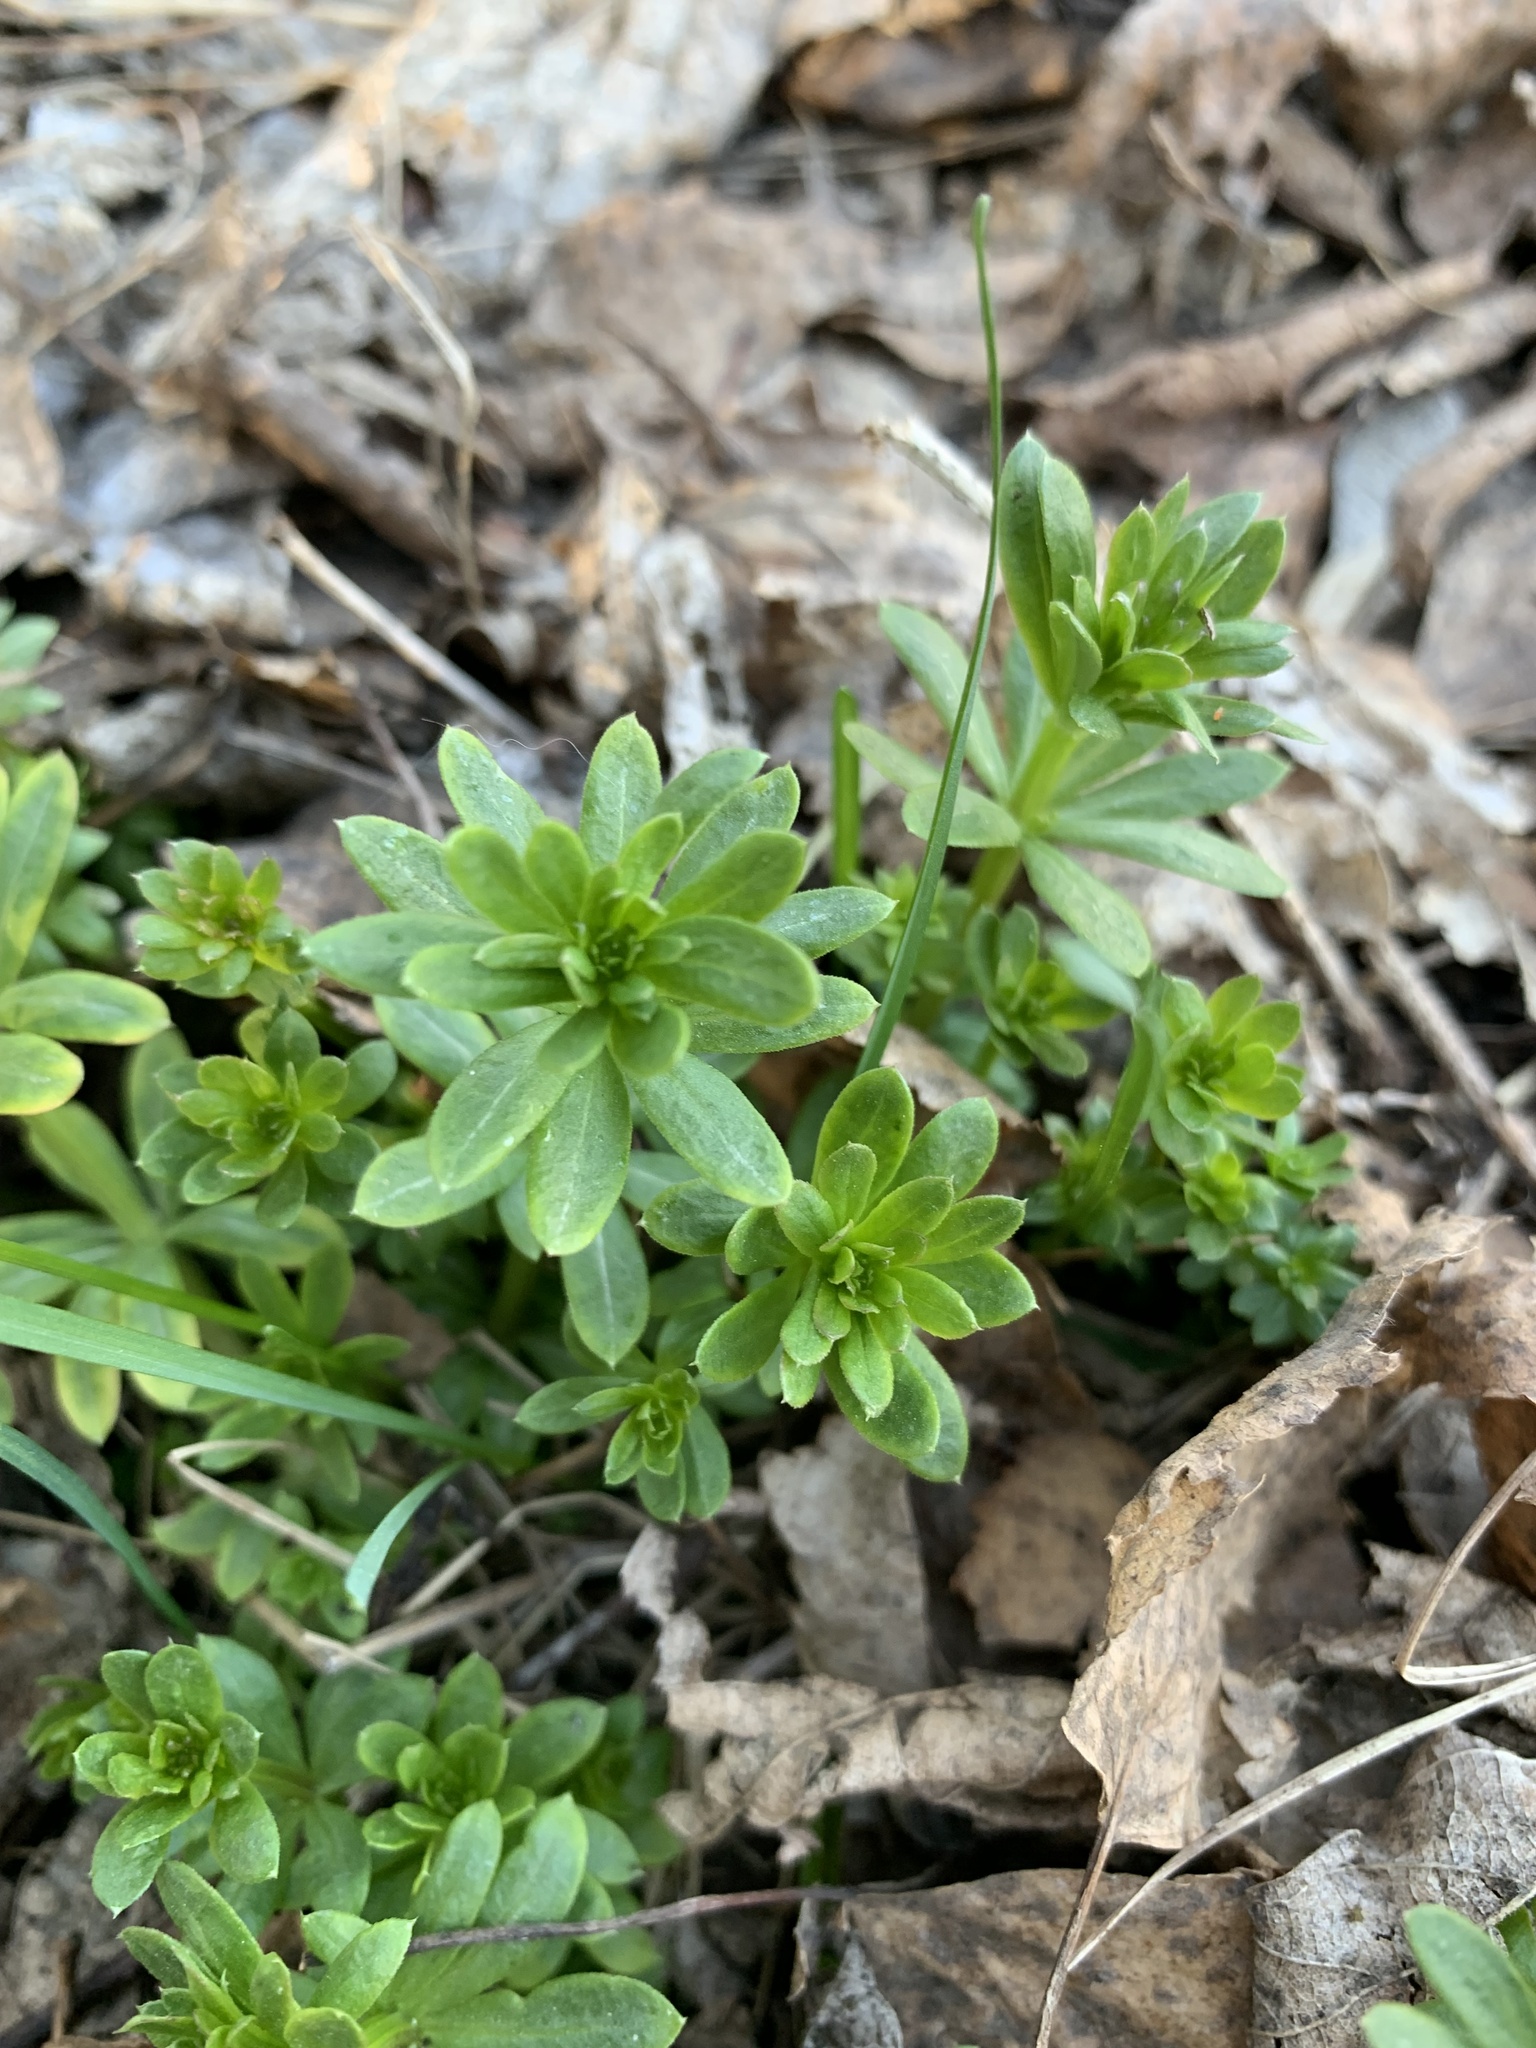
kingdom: Plantae
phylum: Tracheophyta
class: Magnoliopsida
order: Gentianales
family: Rubiaceae
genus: Galium
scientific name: Galium mollugo
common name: Hedge bedstraw
